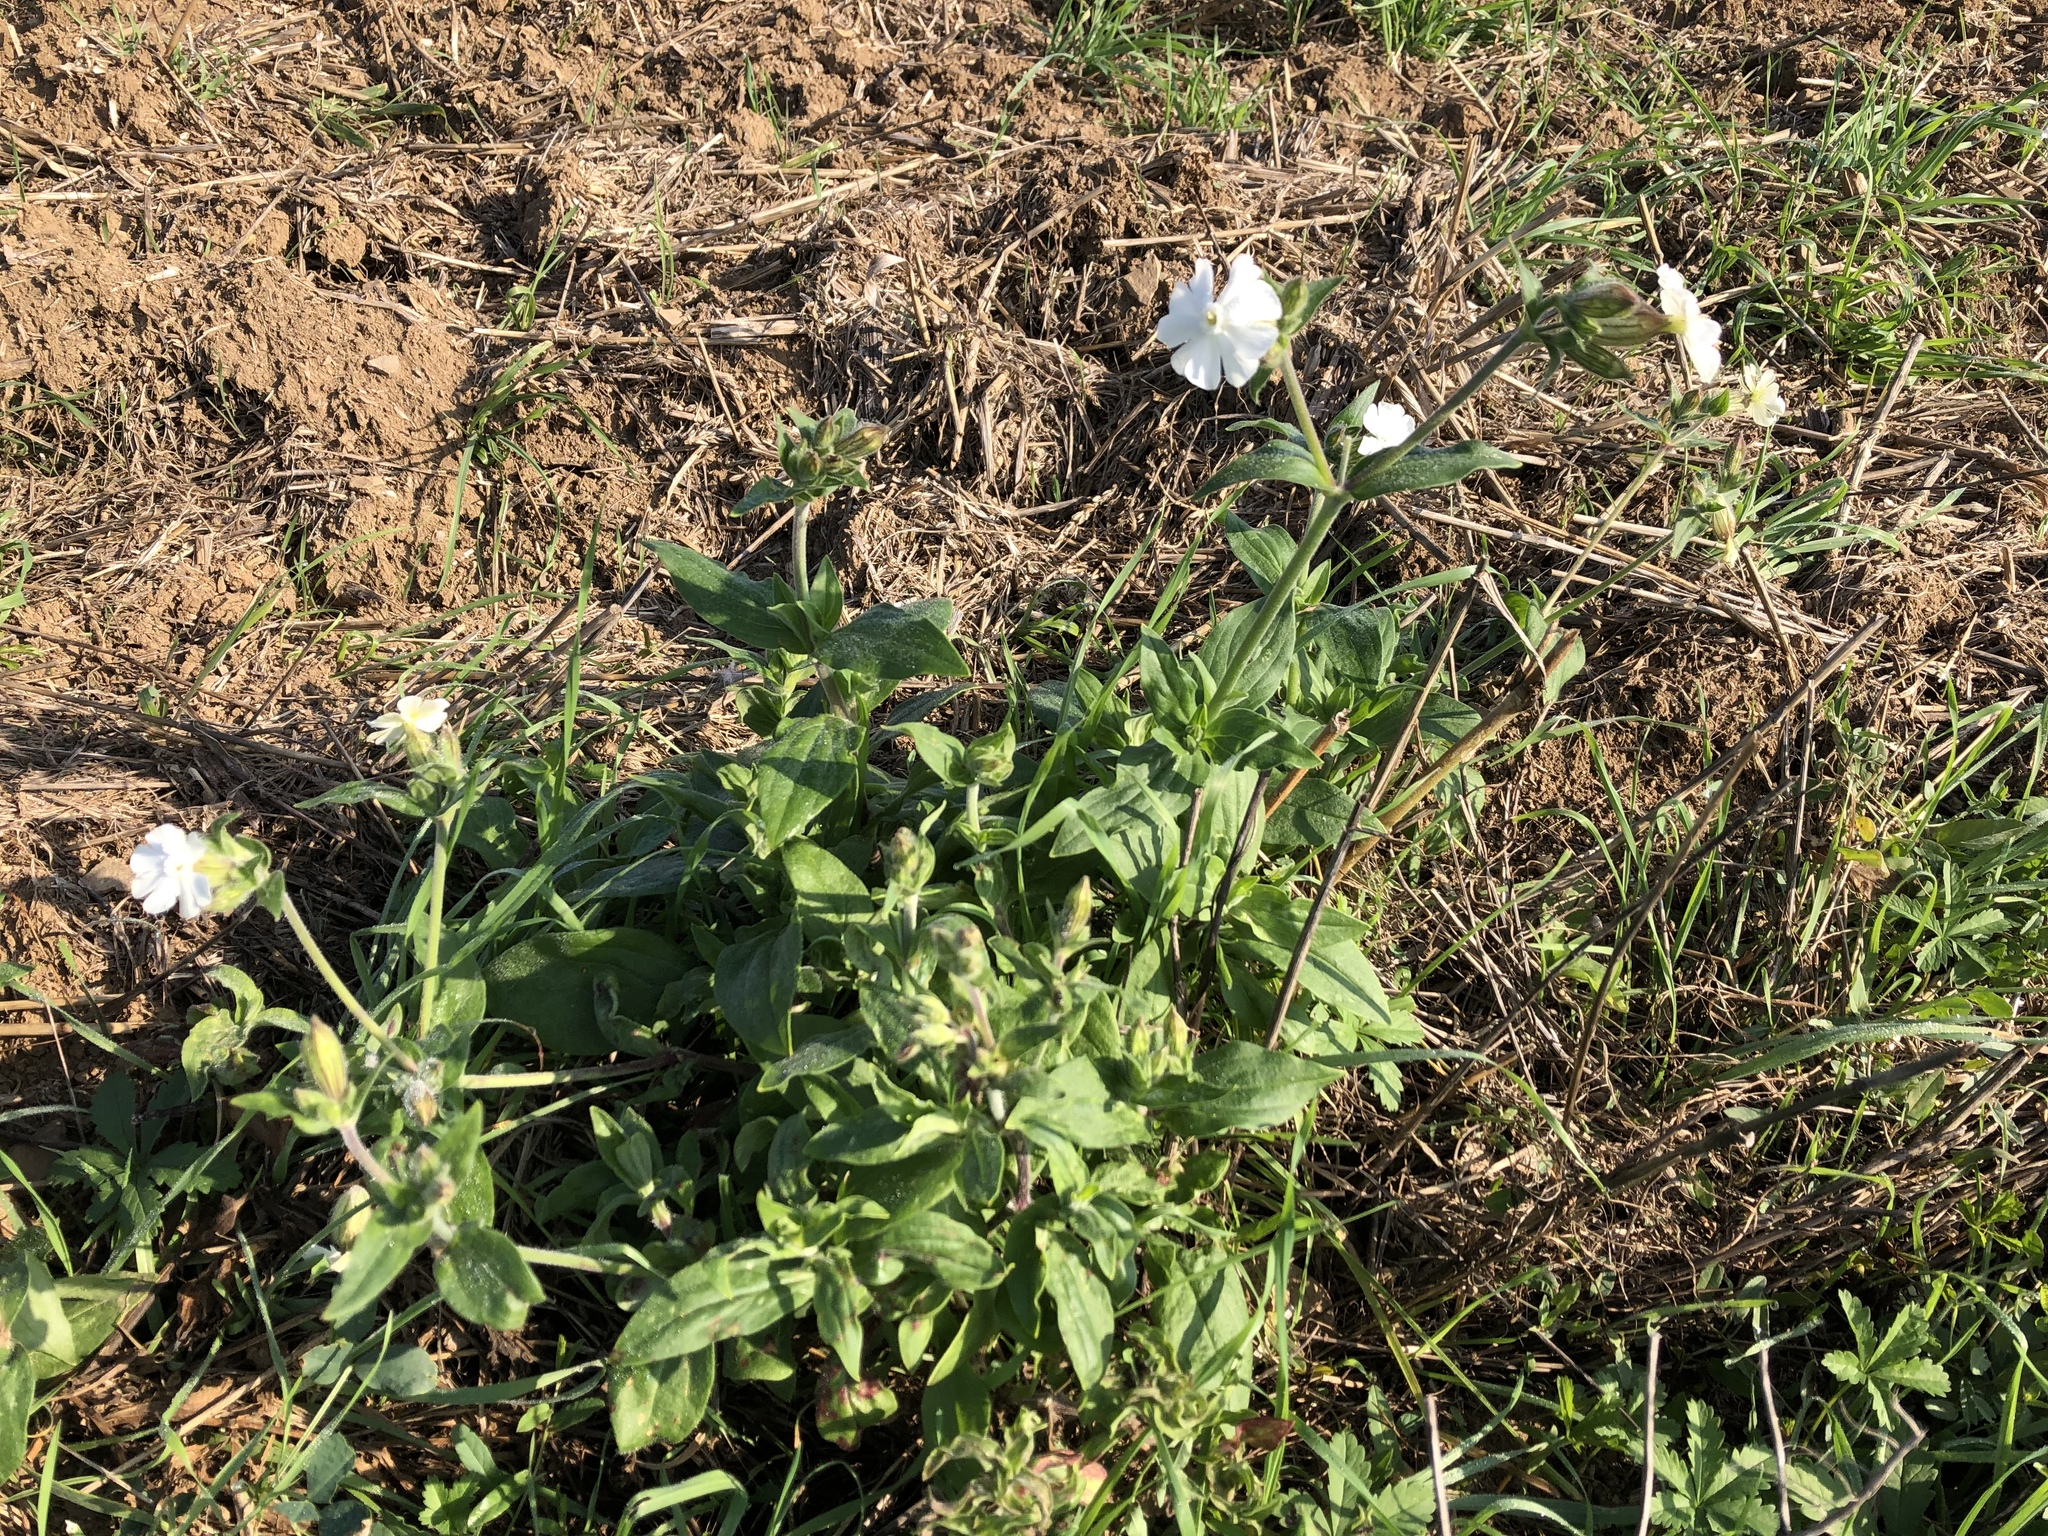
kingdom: Plantae
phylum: Tracheophyta
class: Magnoliopsida
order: Caryophyllales
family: Caryophyllaceae
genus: Silene
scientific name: Silene latifolia
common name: White campion
